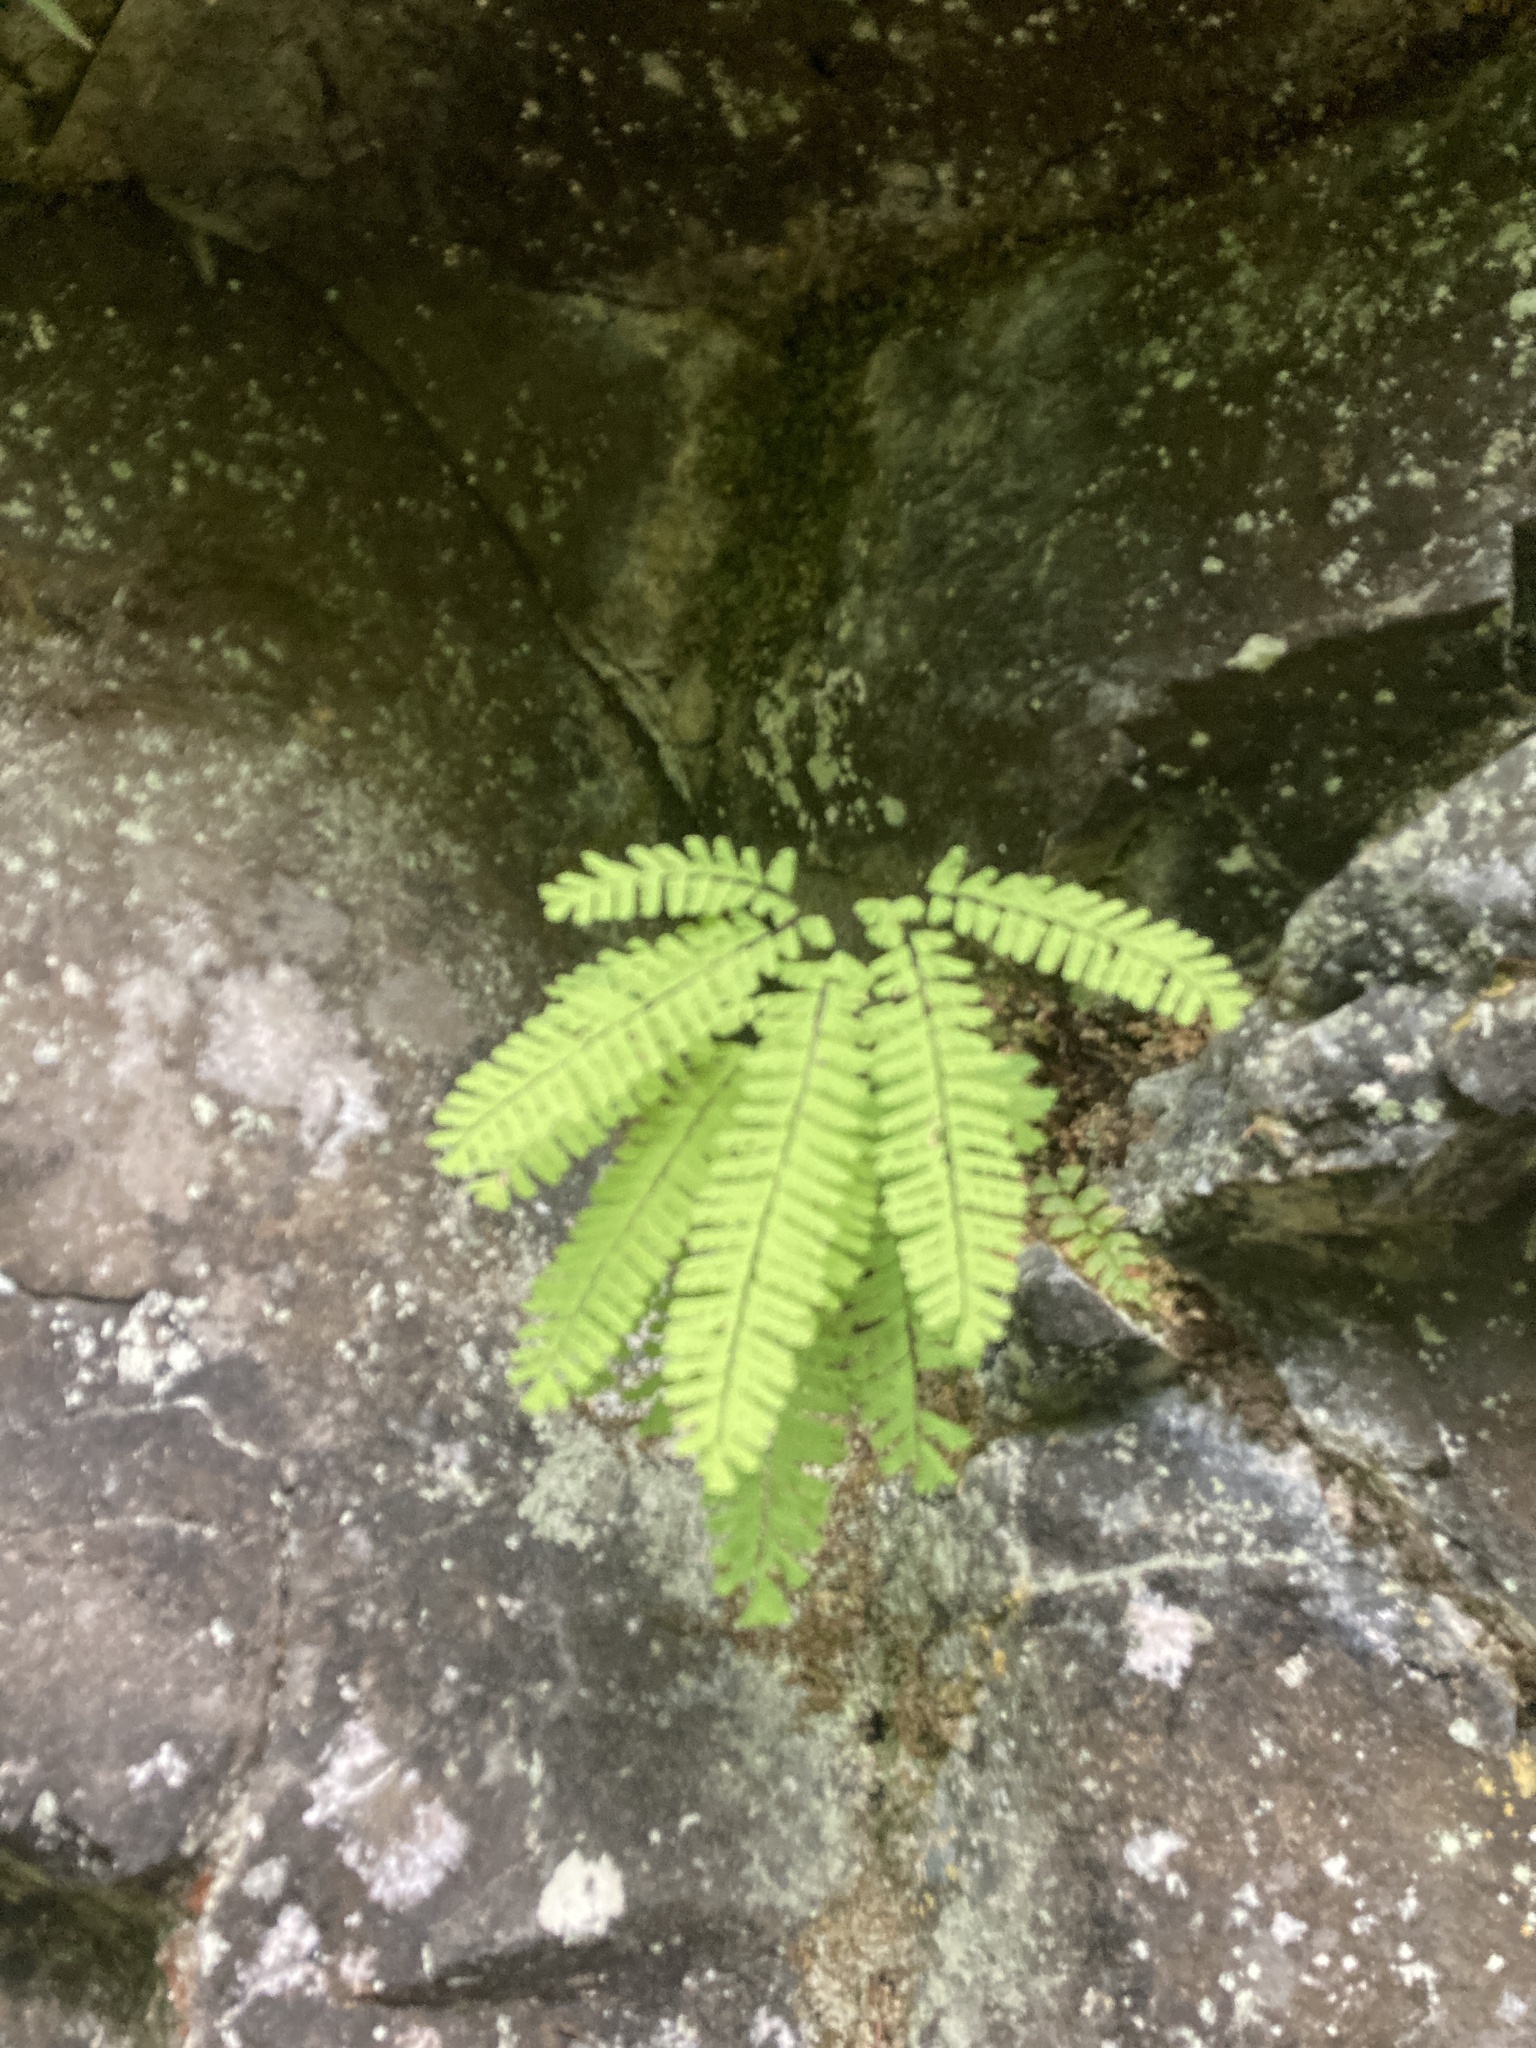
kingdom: Plantae
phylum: Tracheophyta
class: Polypodiopsida
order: Polypodiales
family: Pteridaceae
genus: Adiantum
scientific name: Adiantum aleuticum
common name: Aleutian maidenhair fern
